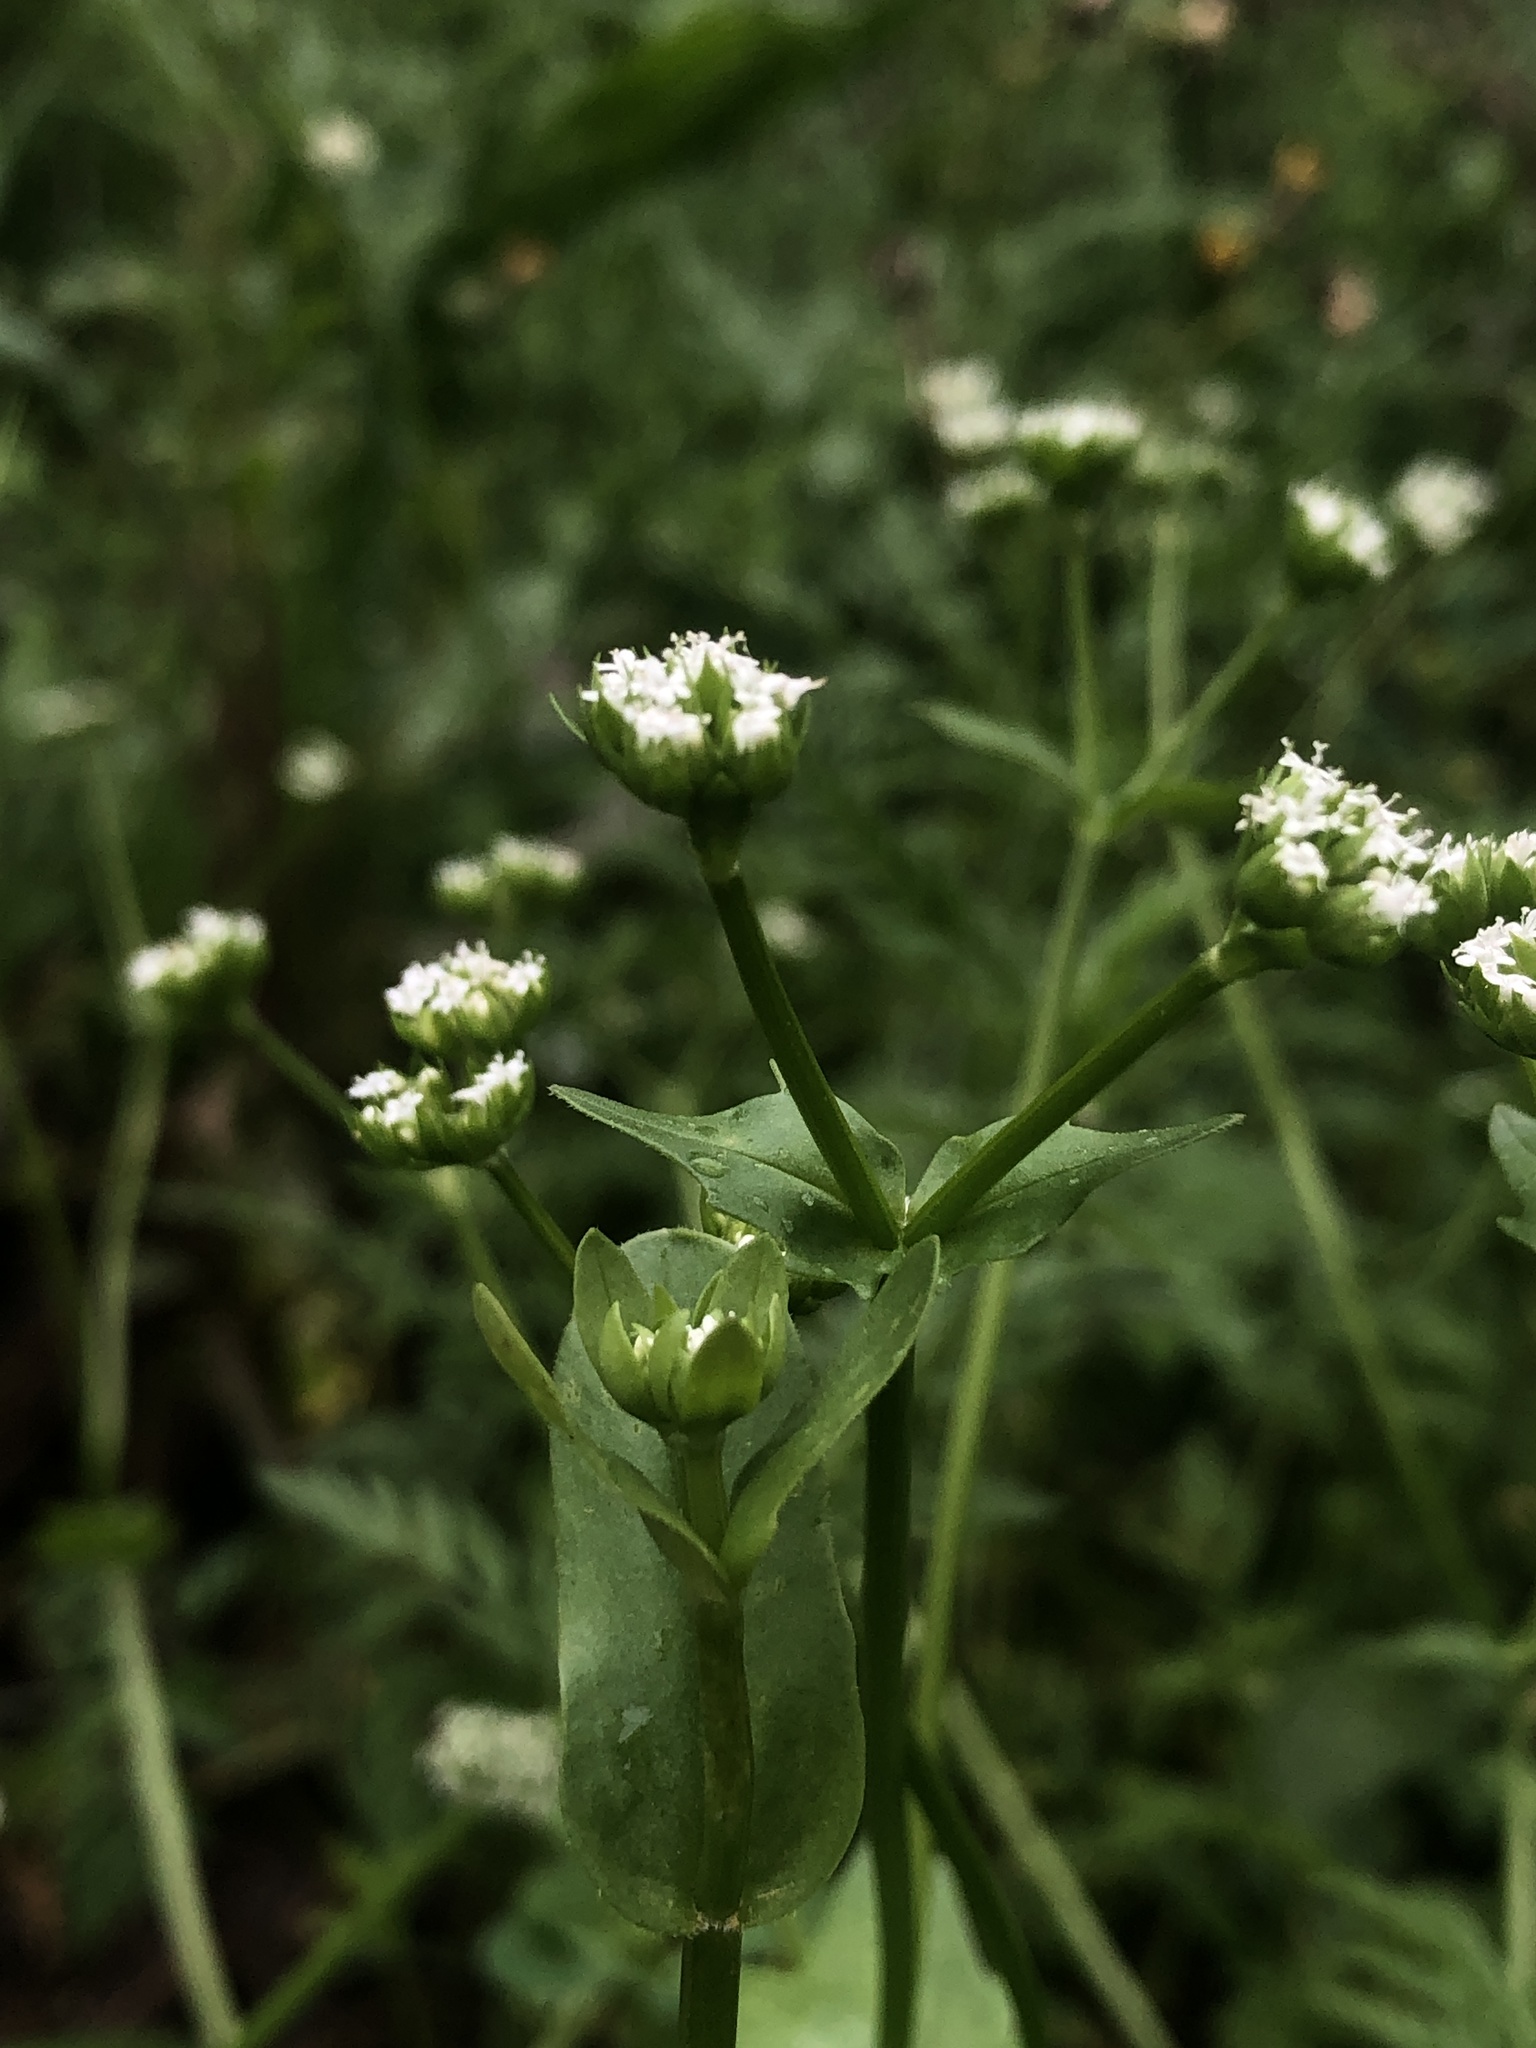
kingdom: Plantae
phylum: Tracheophyta
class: Magnoliopsida
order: Dipsacales
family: Caprifoliaceae
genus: Valerianella
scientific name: Valerianella radiata
